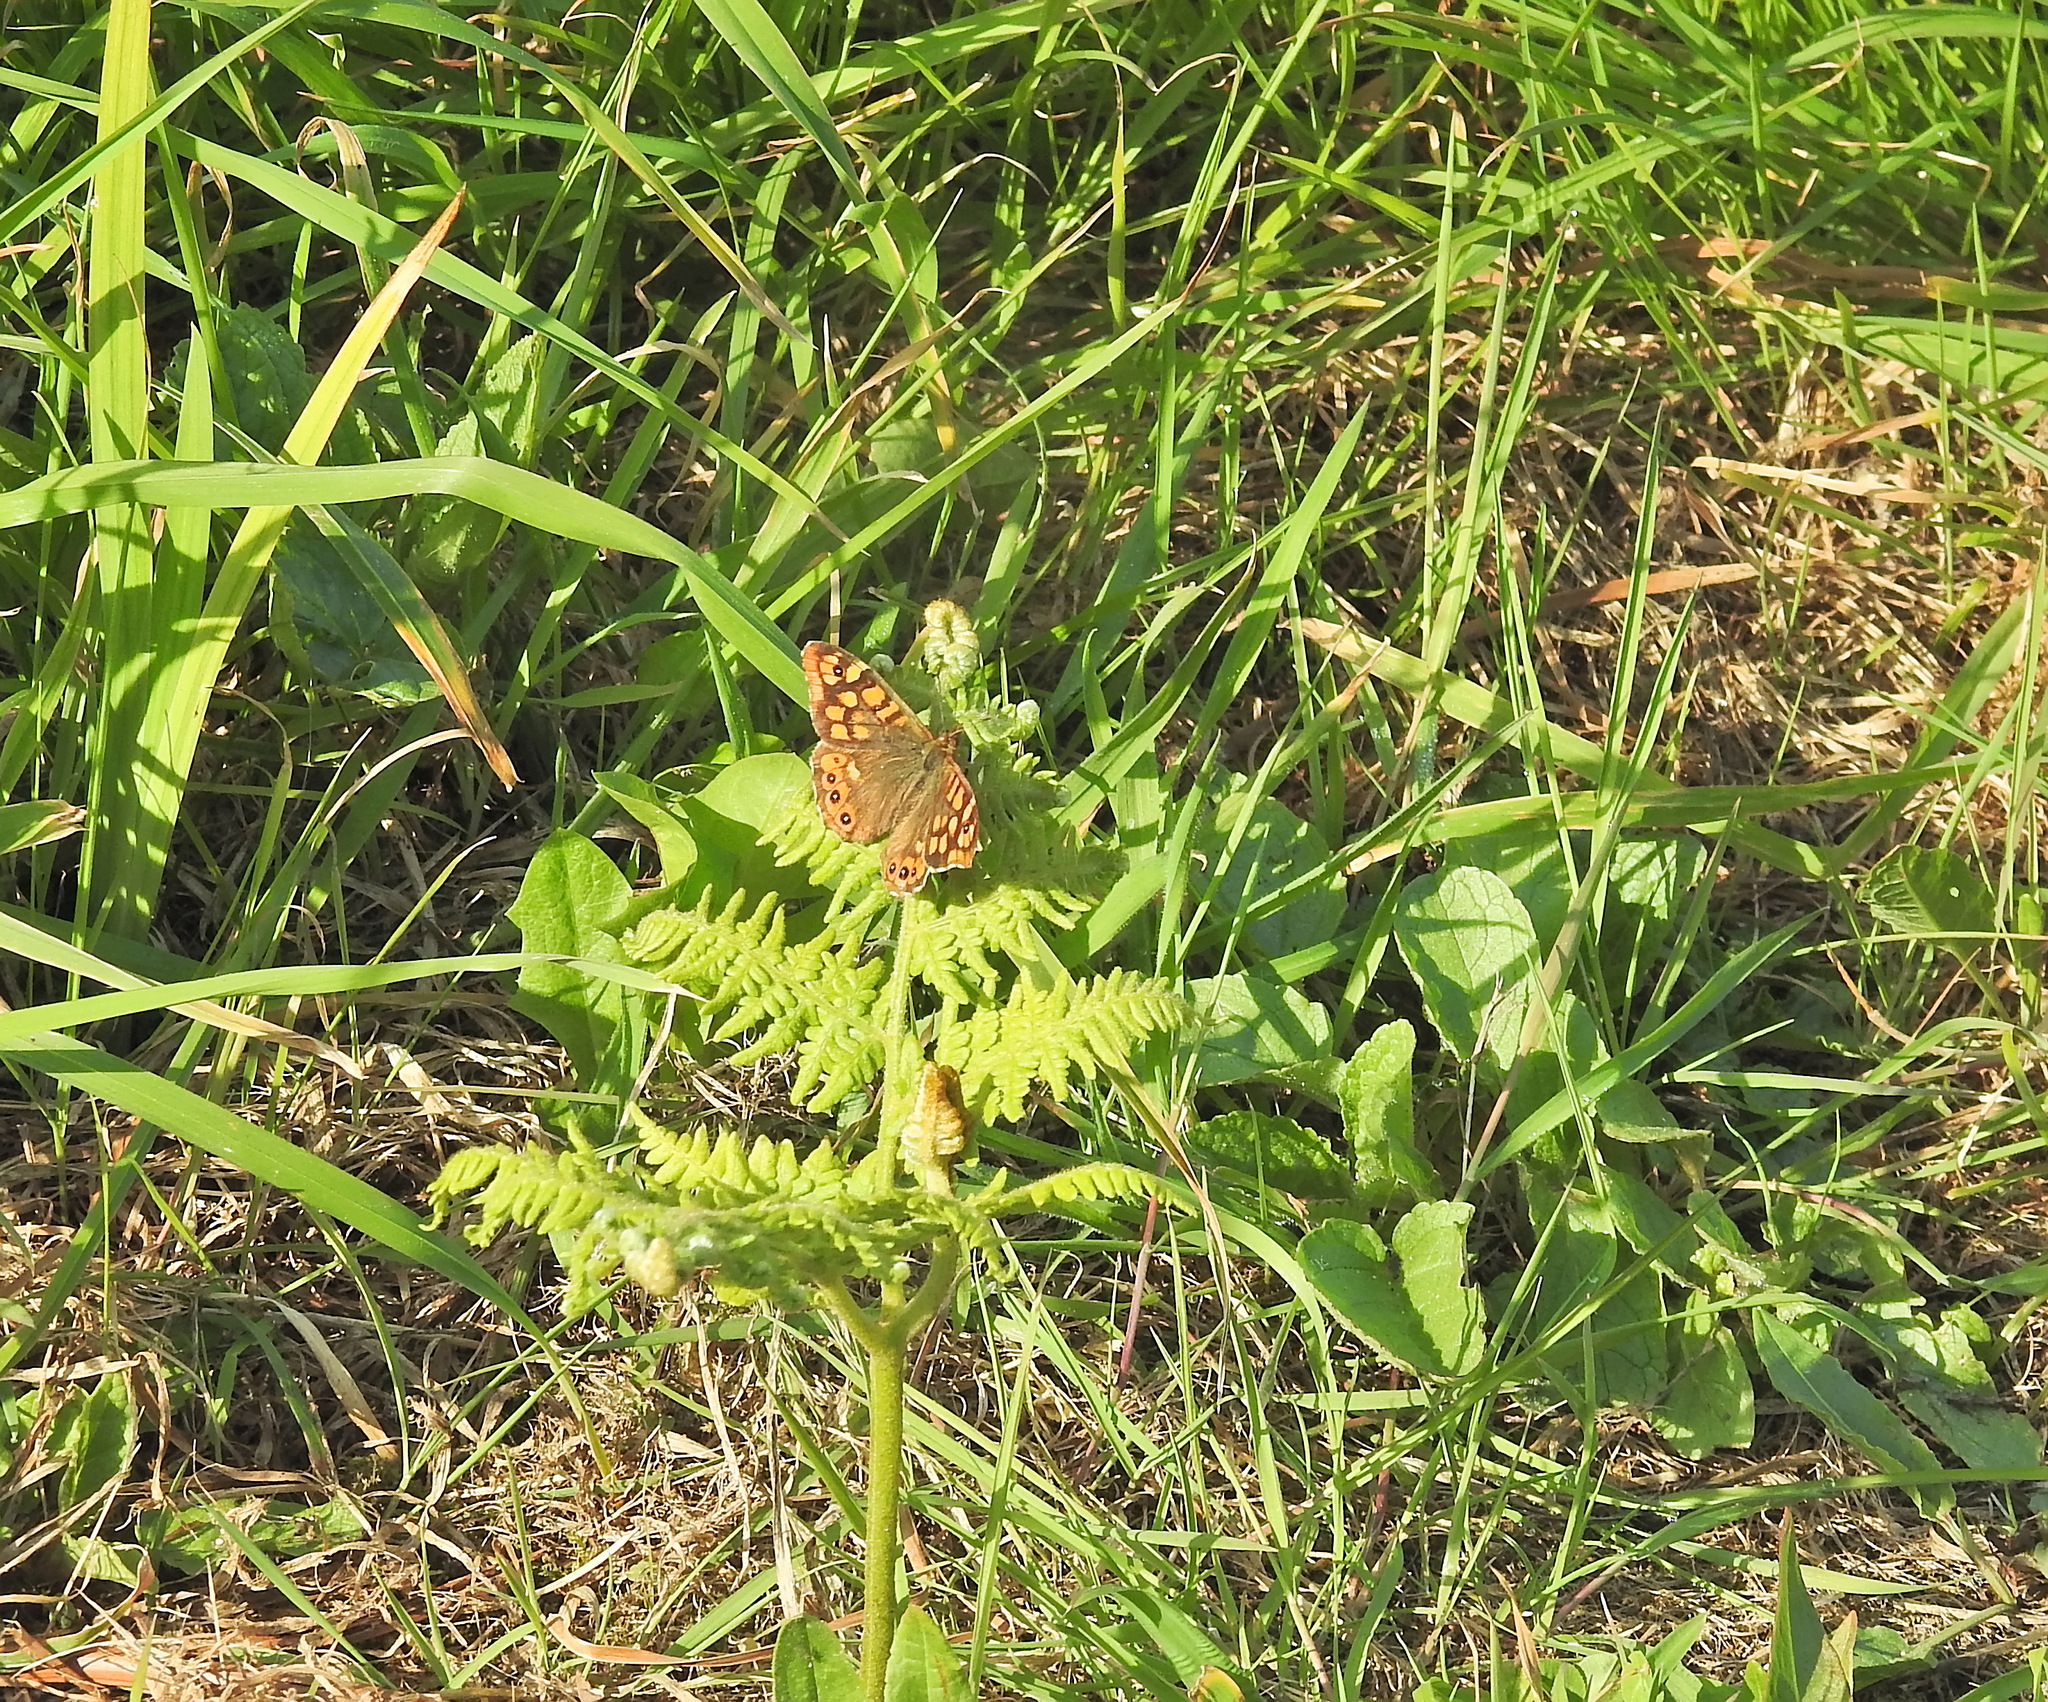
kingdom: Animalia
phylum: Arthropoda
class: Insecta
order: Lepidoptera
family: Nymphalidae
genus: Pararge
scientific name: Pararge aegeria
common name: Speckled wood
